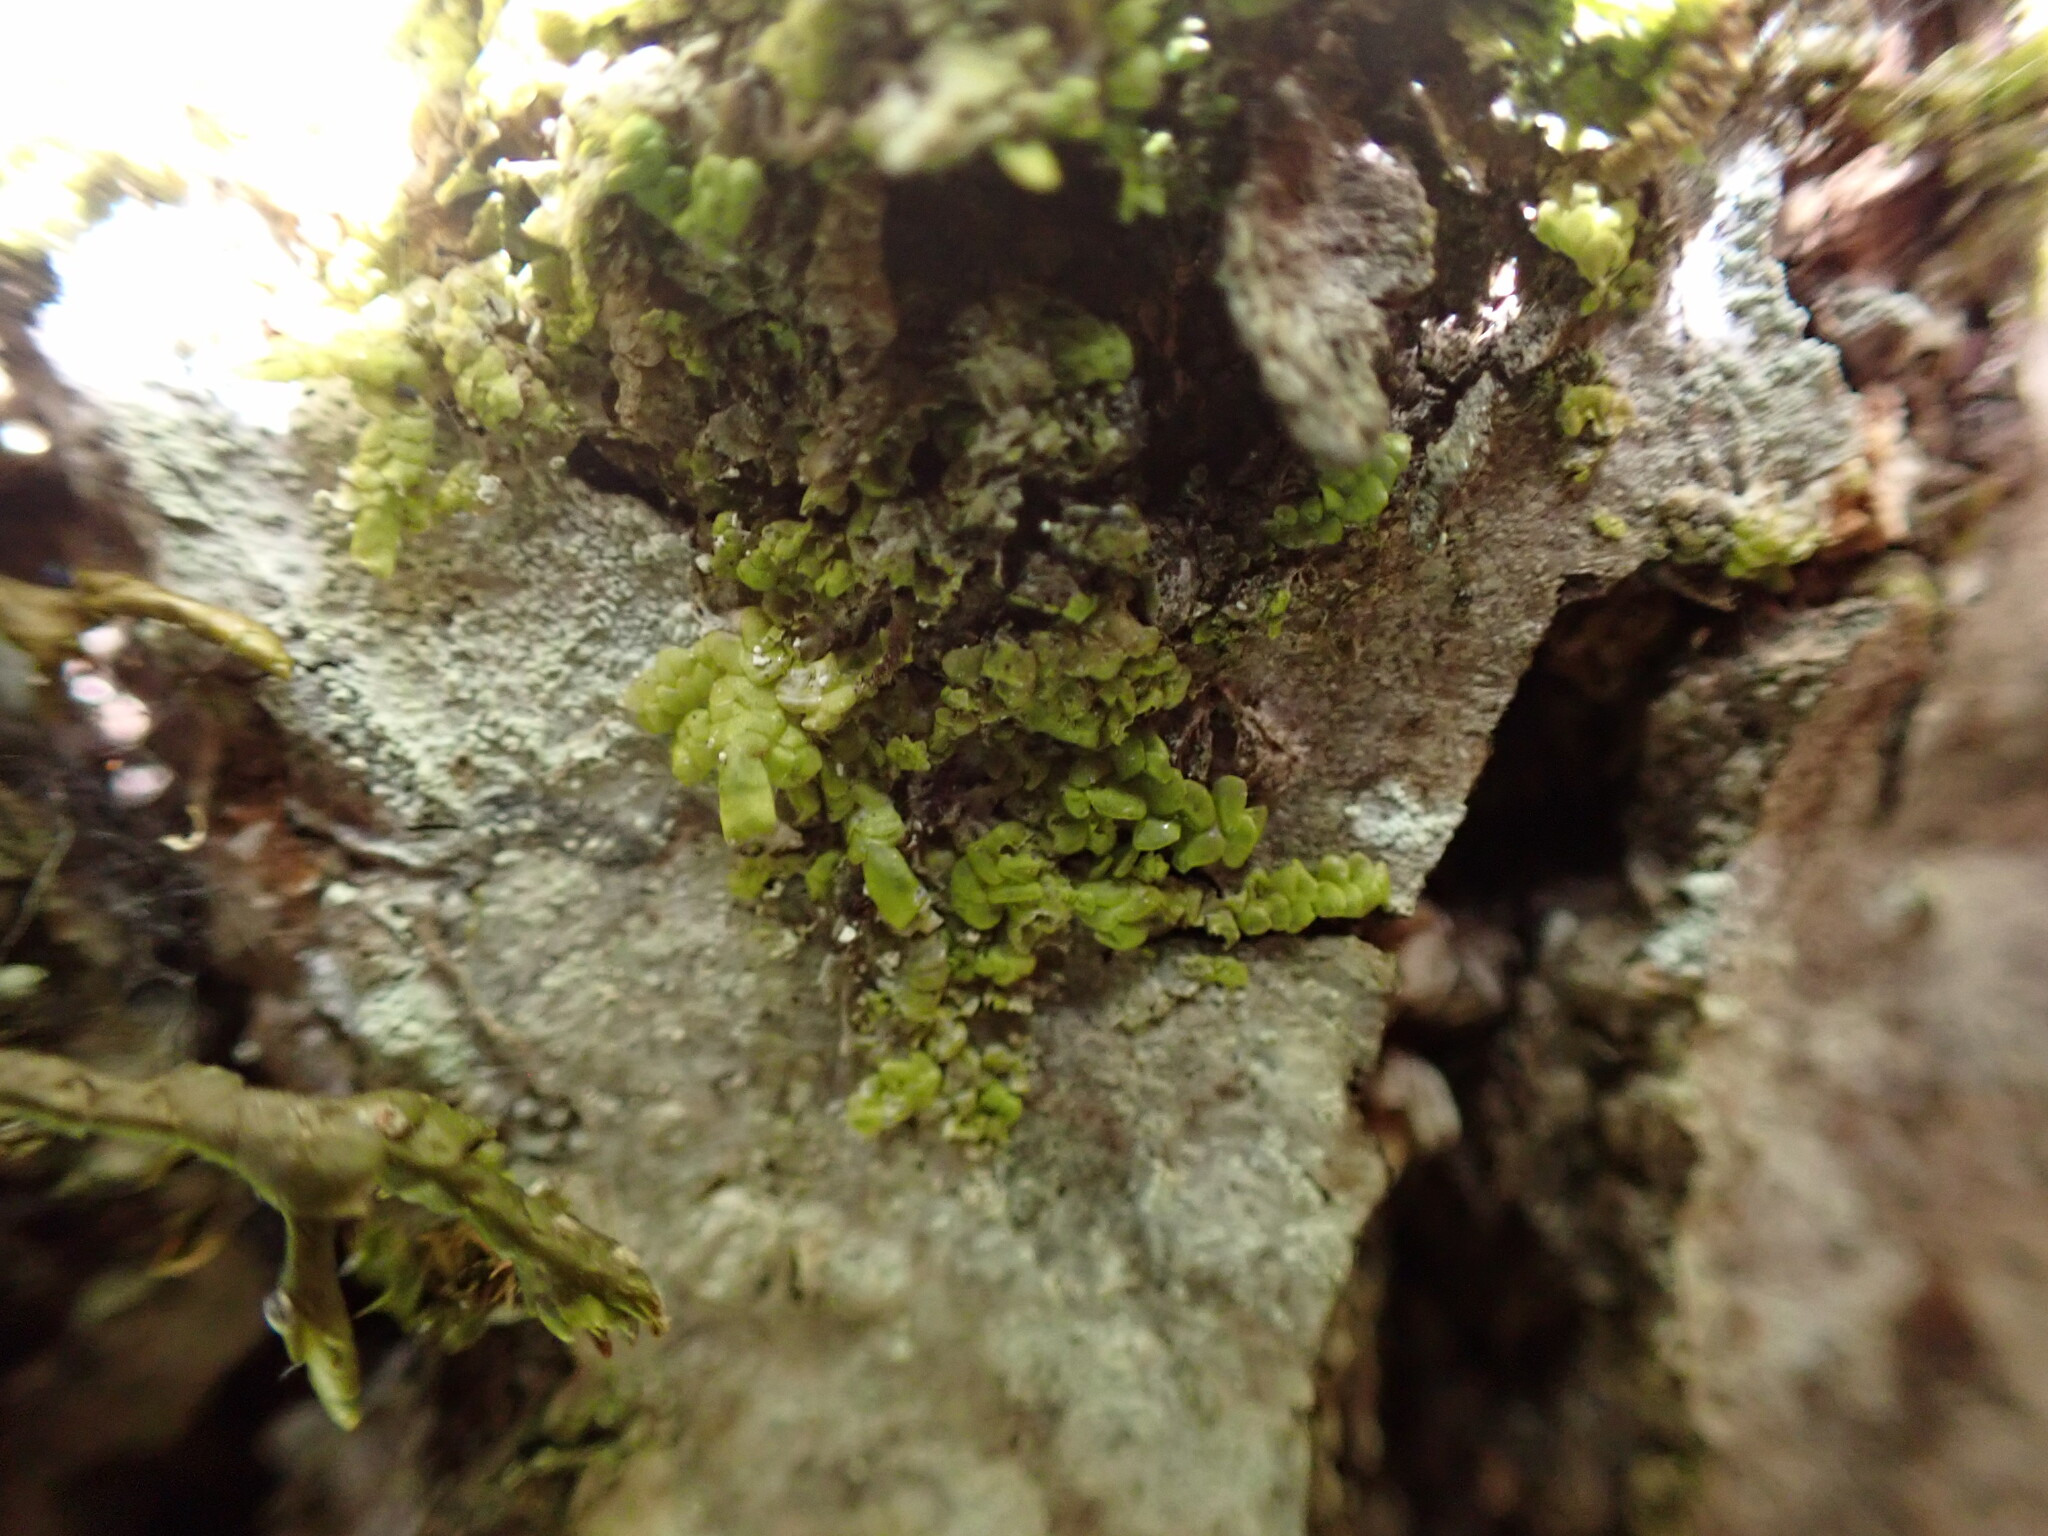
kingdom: Plantae
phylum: Marchantiophyta
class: Jungermanniopsida
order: Porellales
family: Radulaceae
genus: Radula
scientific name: Radula complanata
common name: Flat-leaved scalewort
